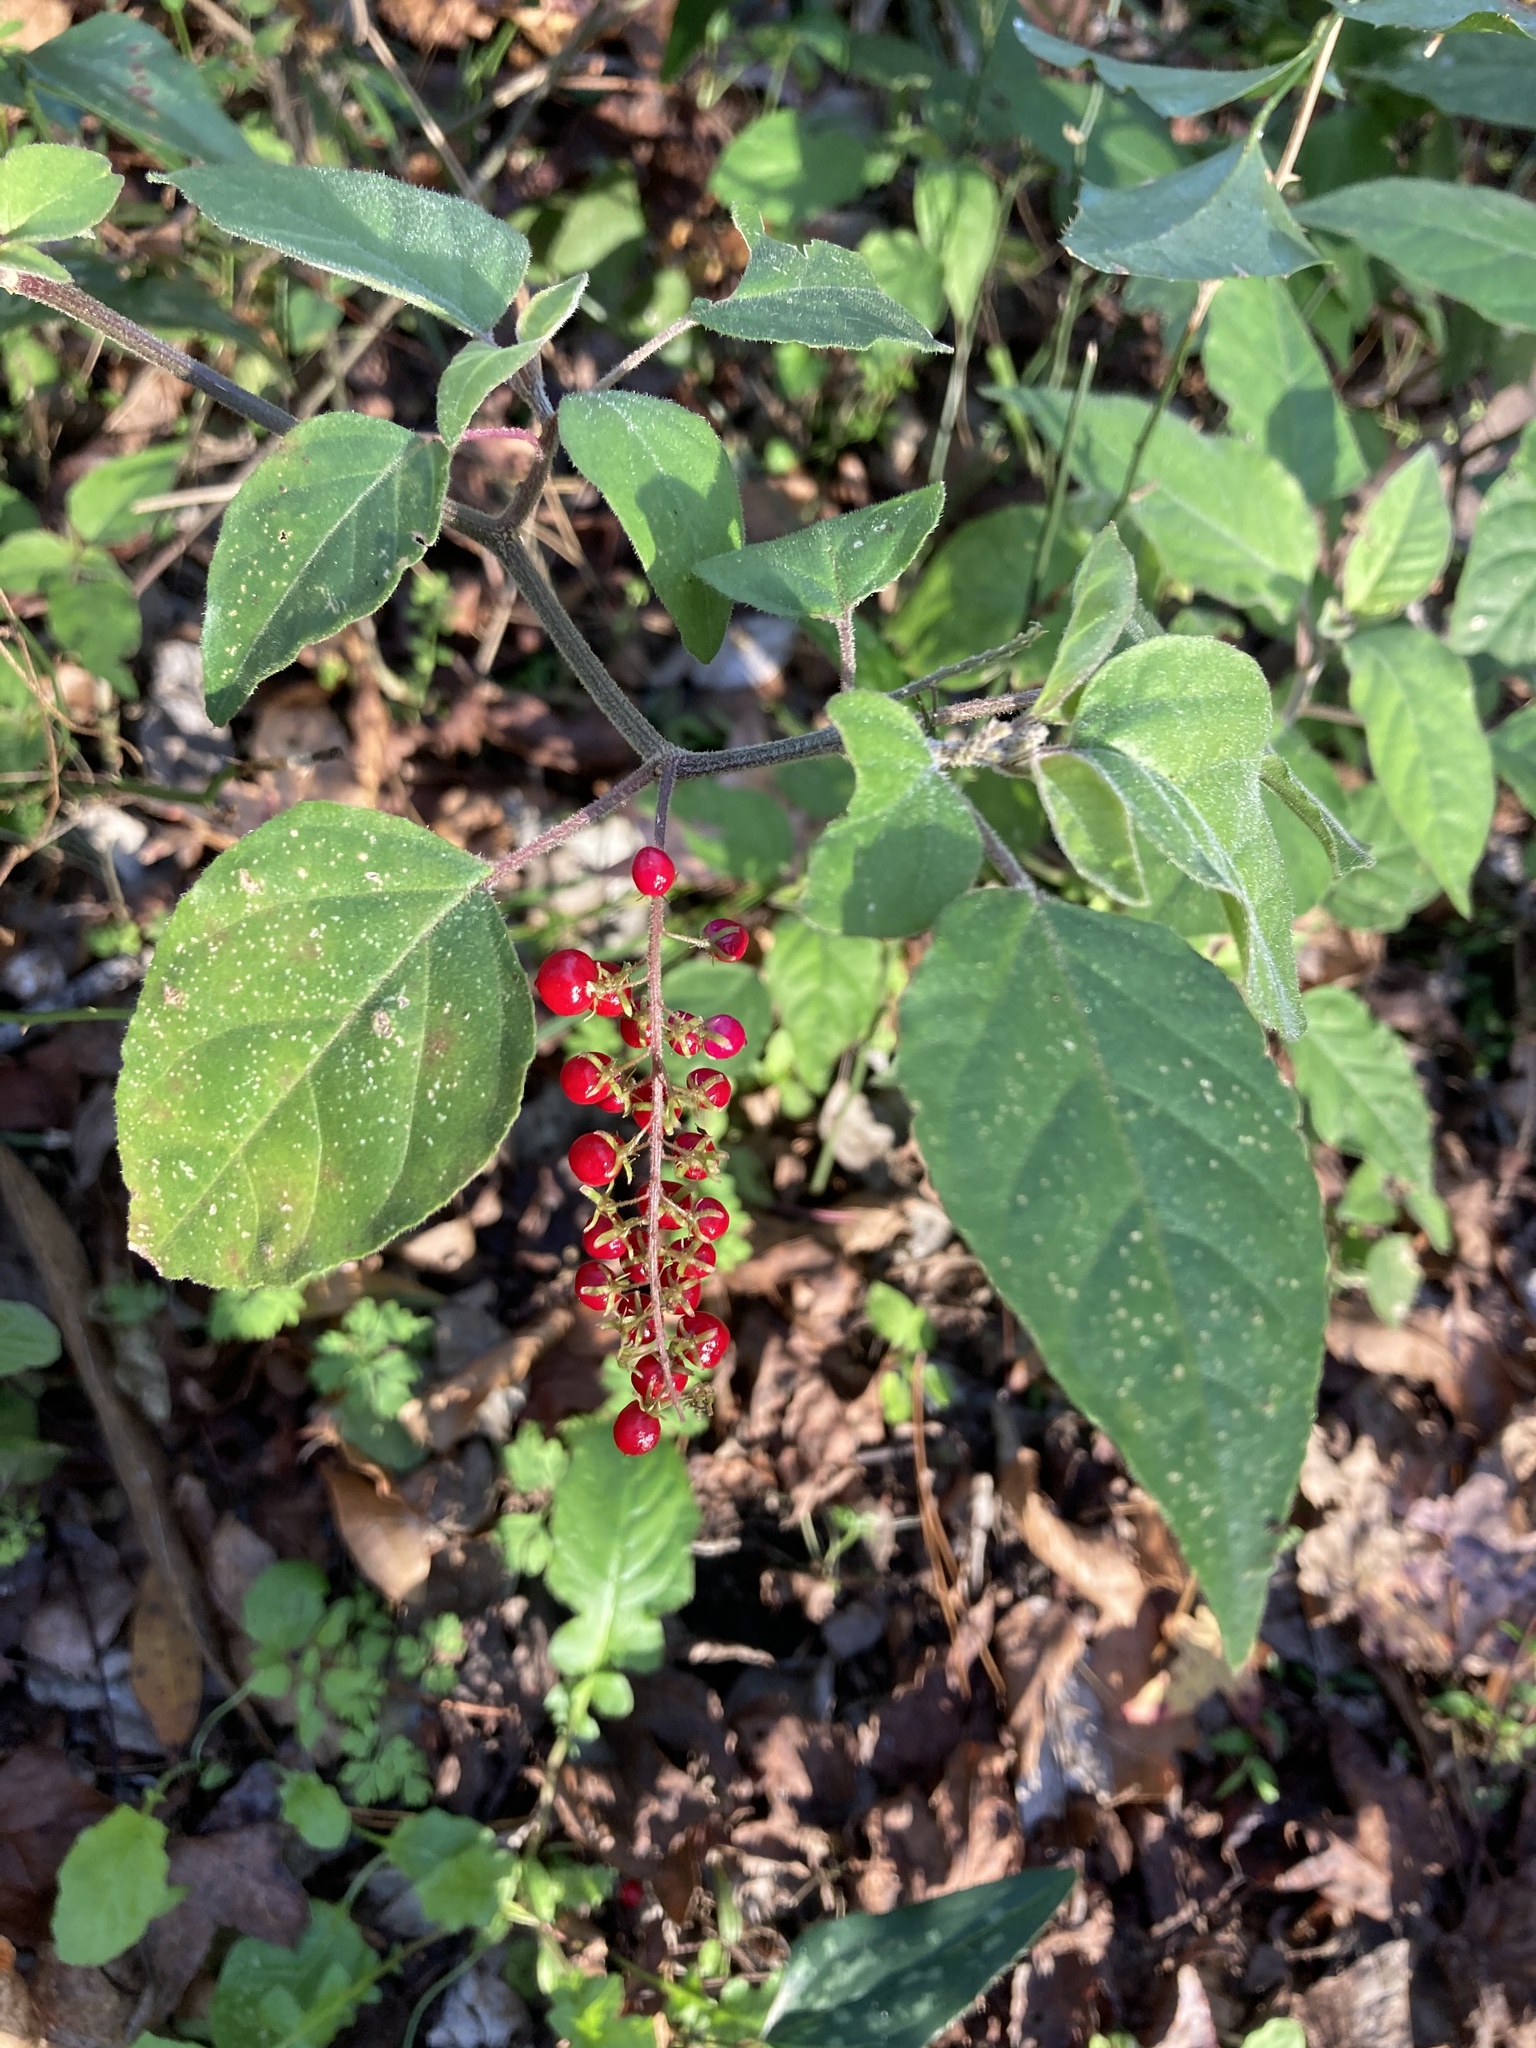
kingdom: Plantae
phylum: Tracheophyta
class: Magnoliopsida
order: Caryophyllales
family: Phytolaccaceae
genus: Rivina
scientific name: Rivina humilis
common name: Rougeplant
